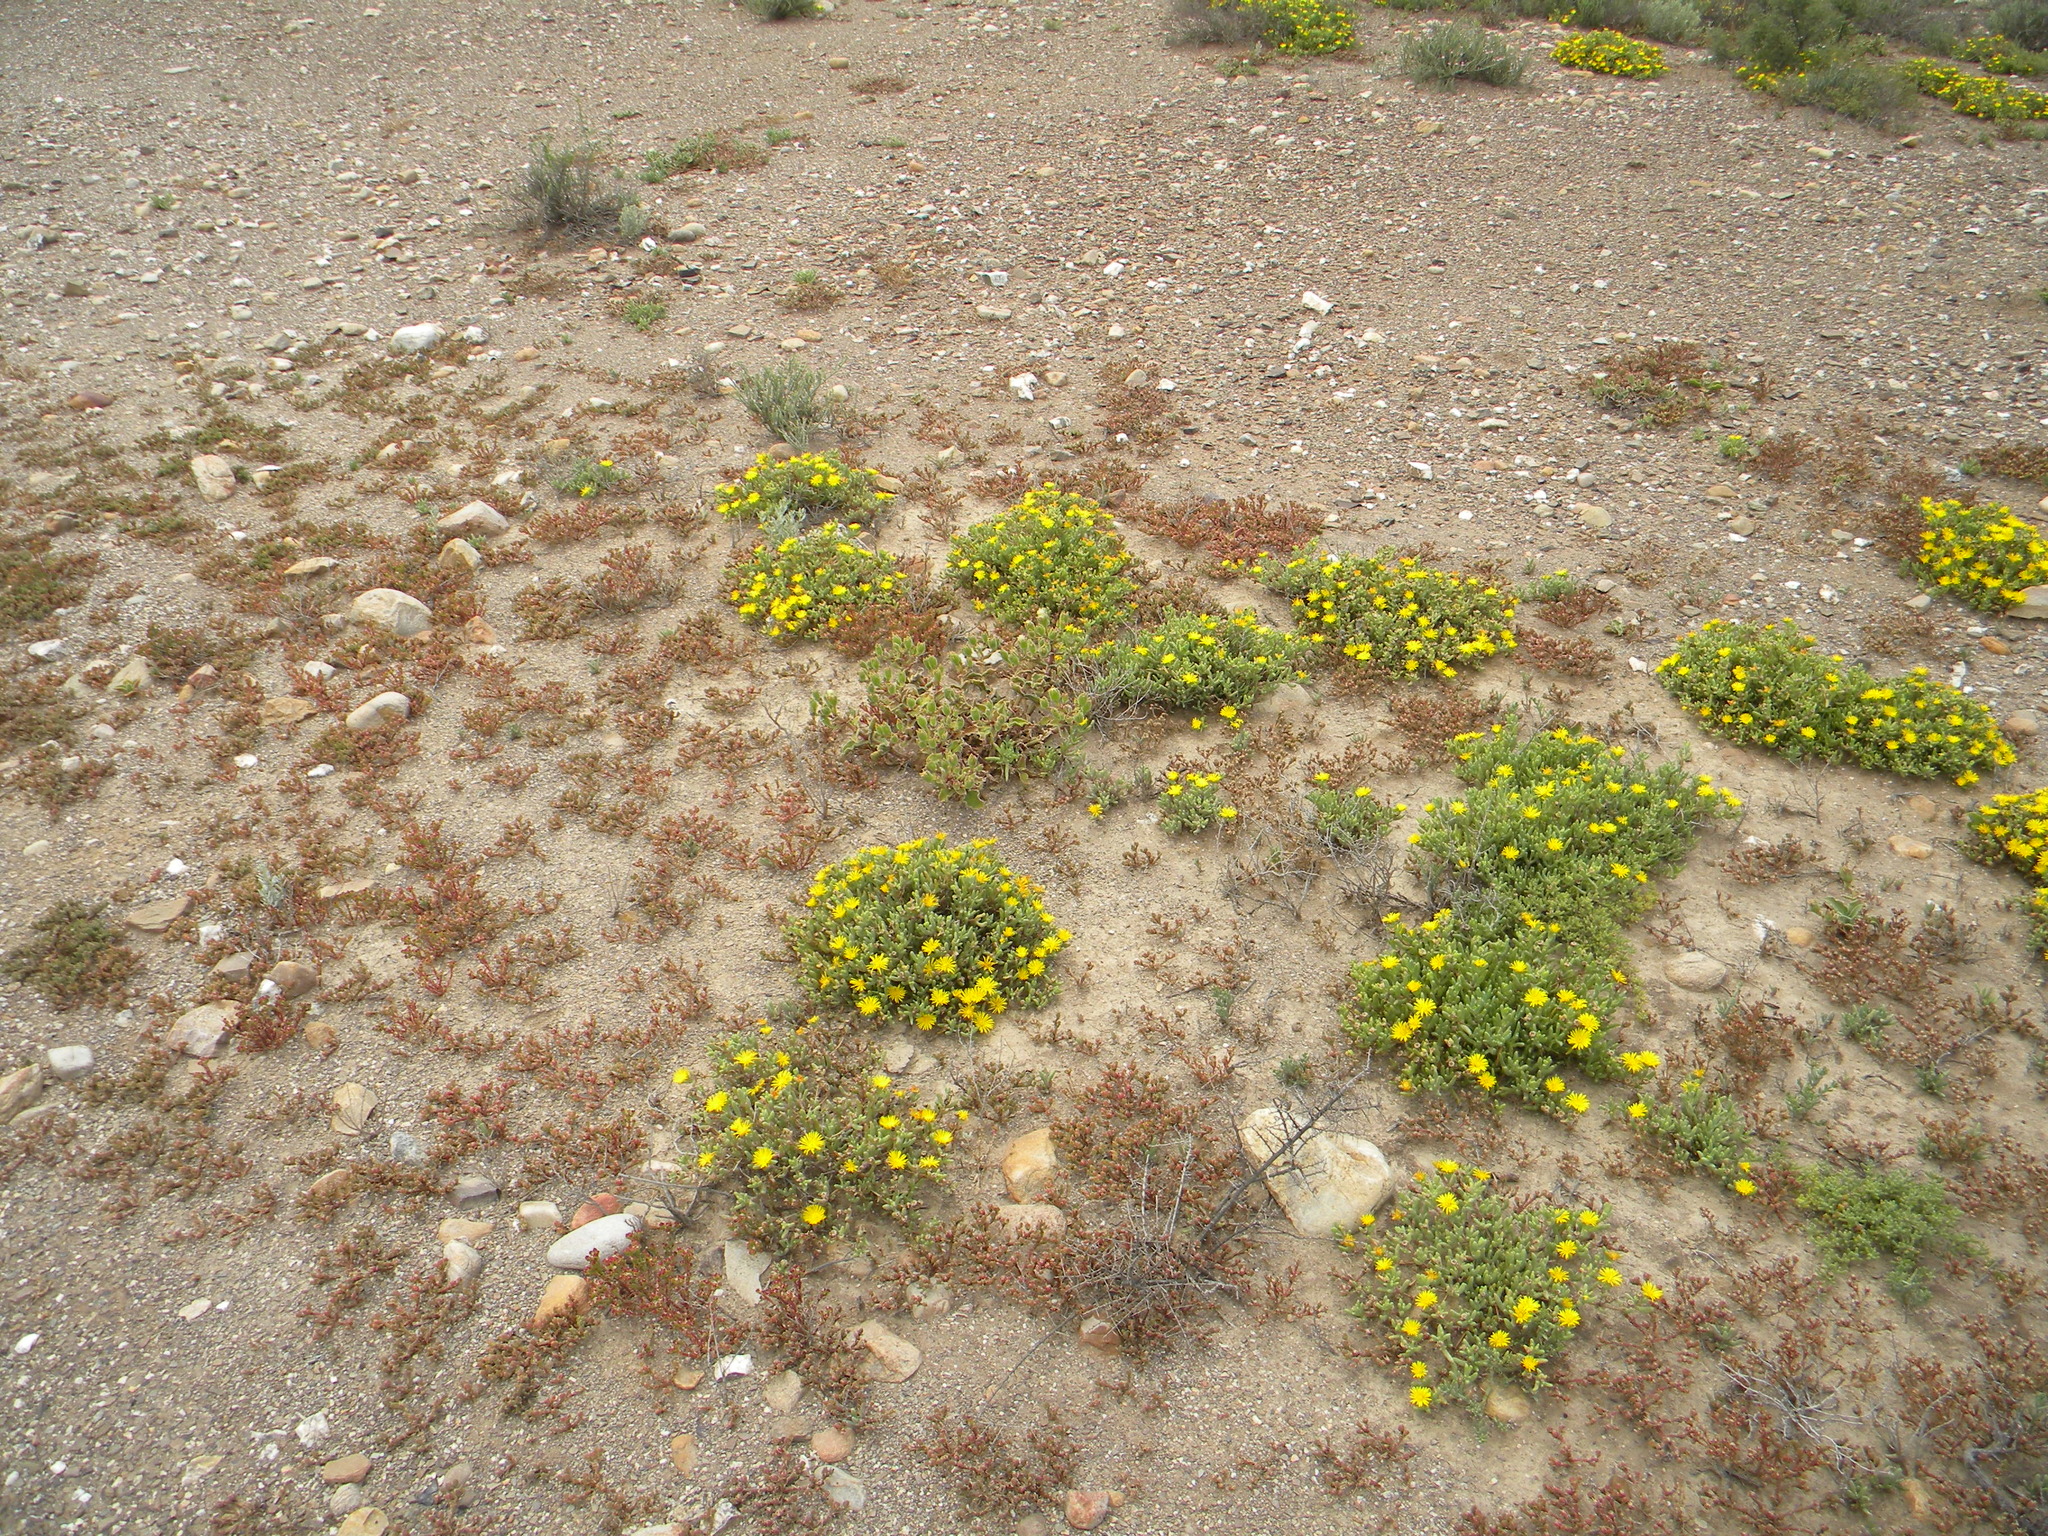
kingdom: Plantae
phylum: Tracheophyta
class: Magnoliopsida
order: Caryophyllales
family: Aizoaceae
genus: Malephora
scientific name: Malephora lutea
